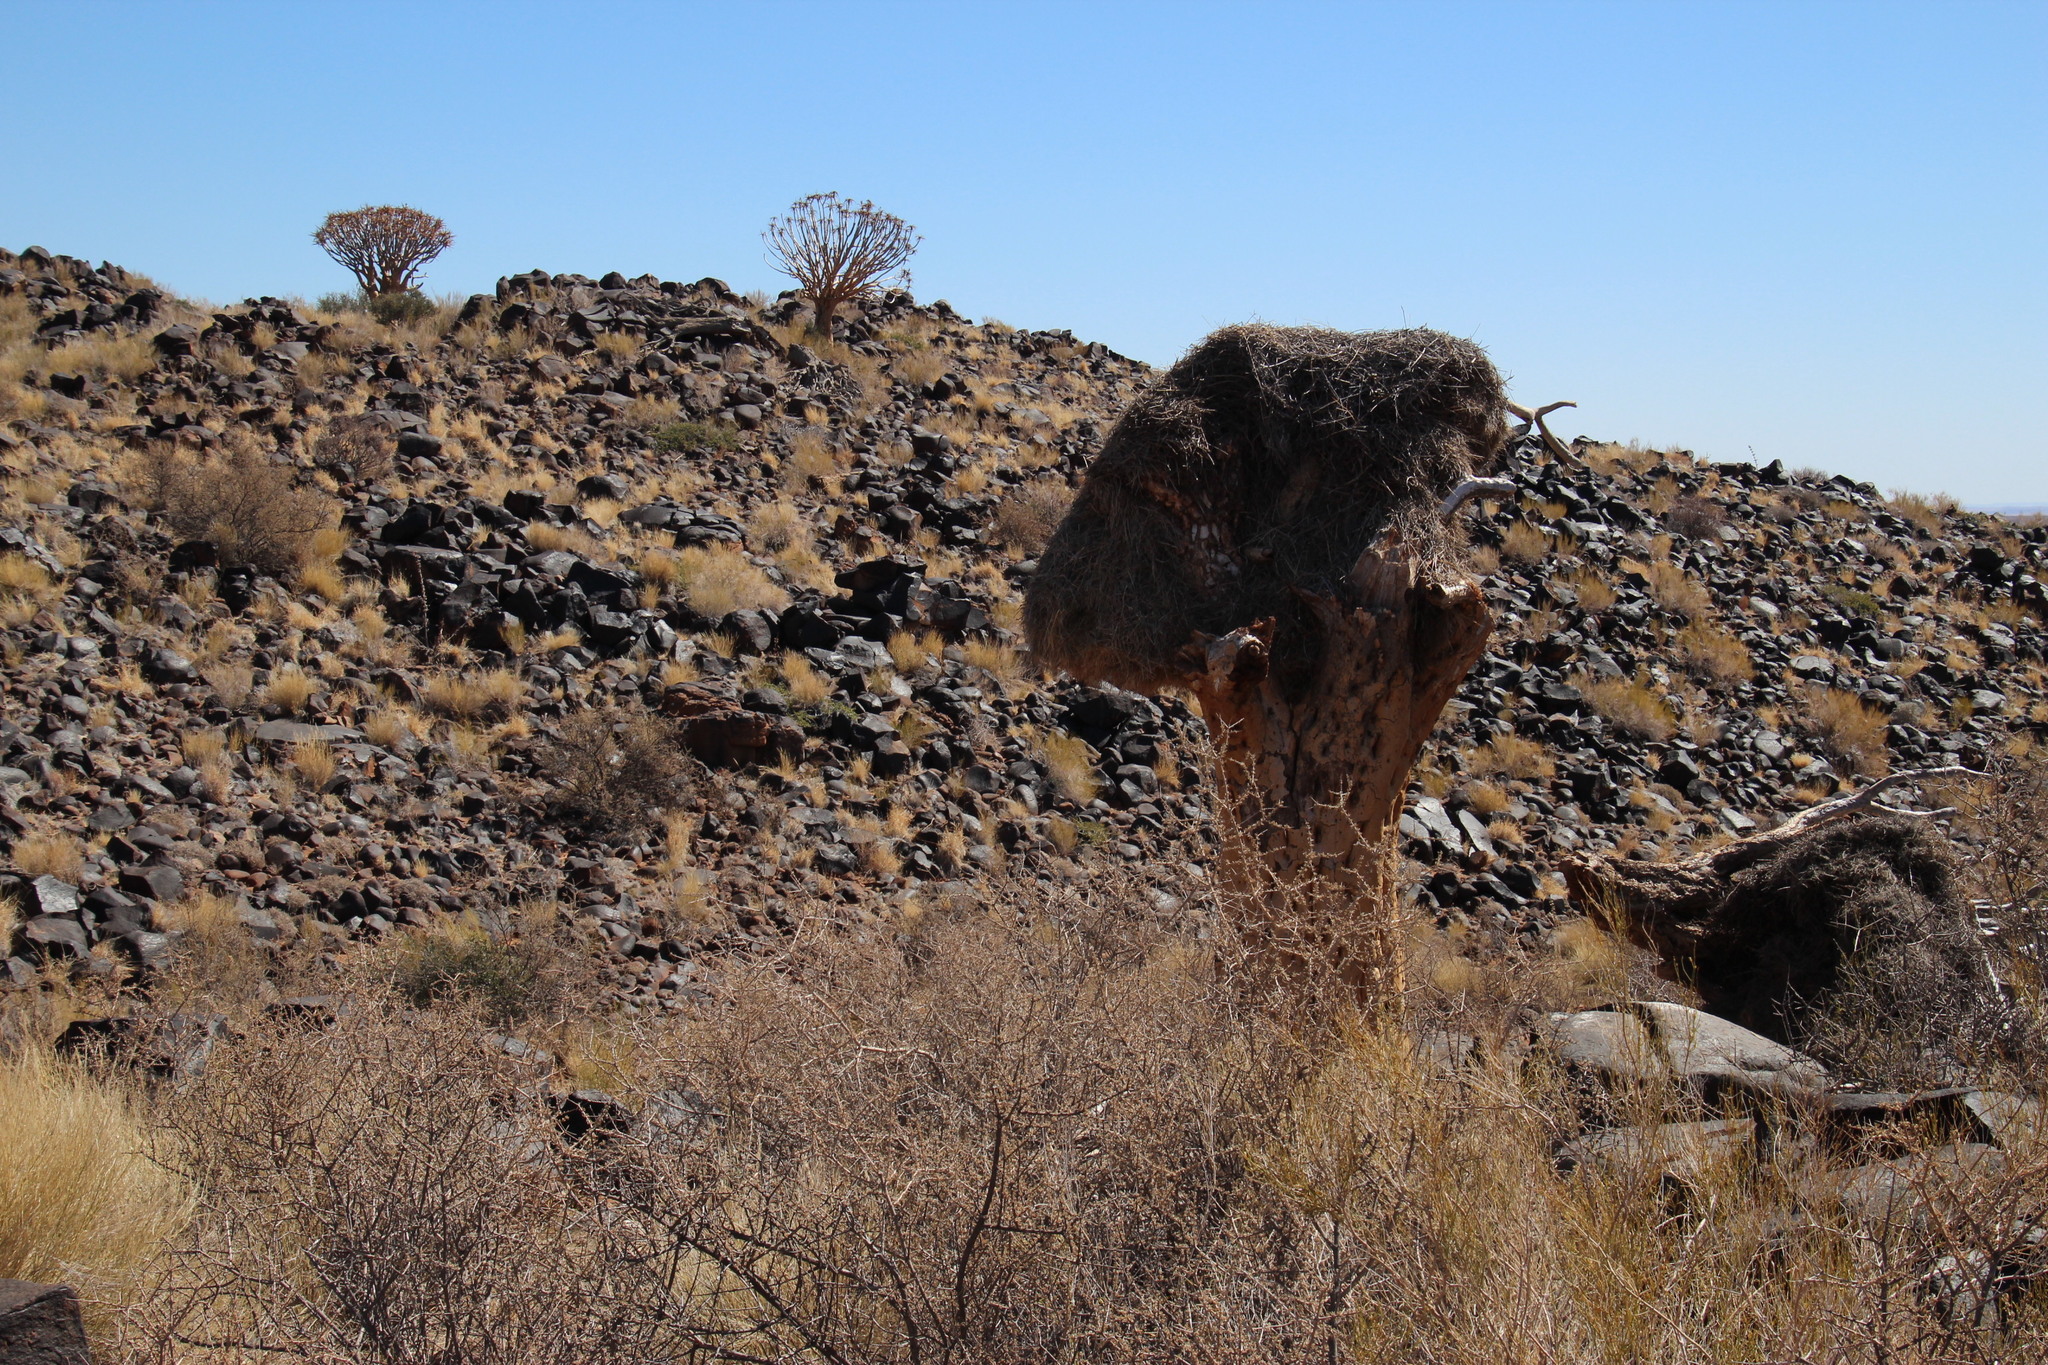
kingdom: Animalia
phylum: Chordata
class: Aves
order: Passeriformes
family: Passeridae
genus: Philetairus
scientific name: Philetairus socius
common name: Sociable weaver
